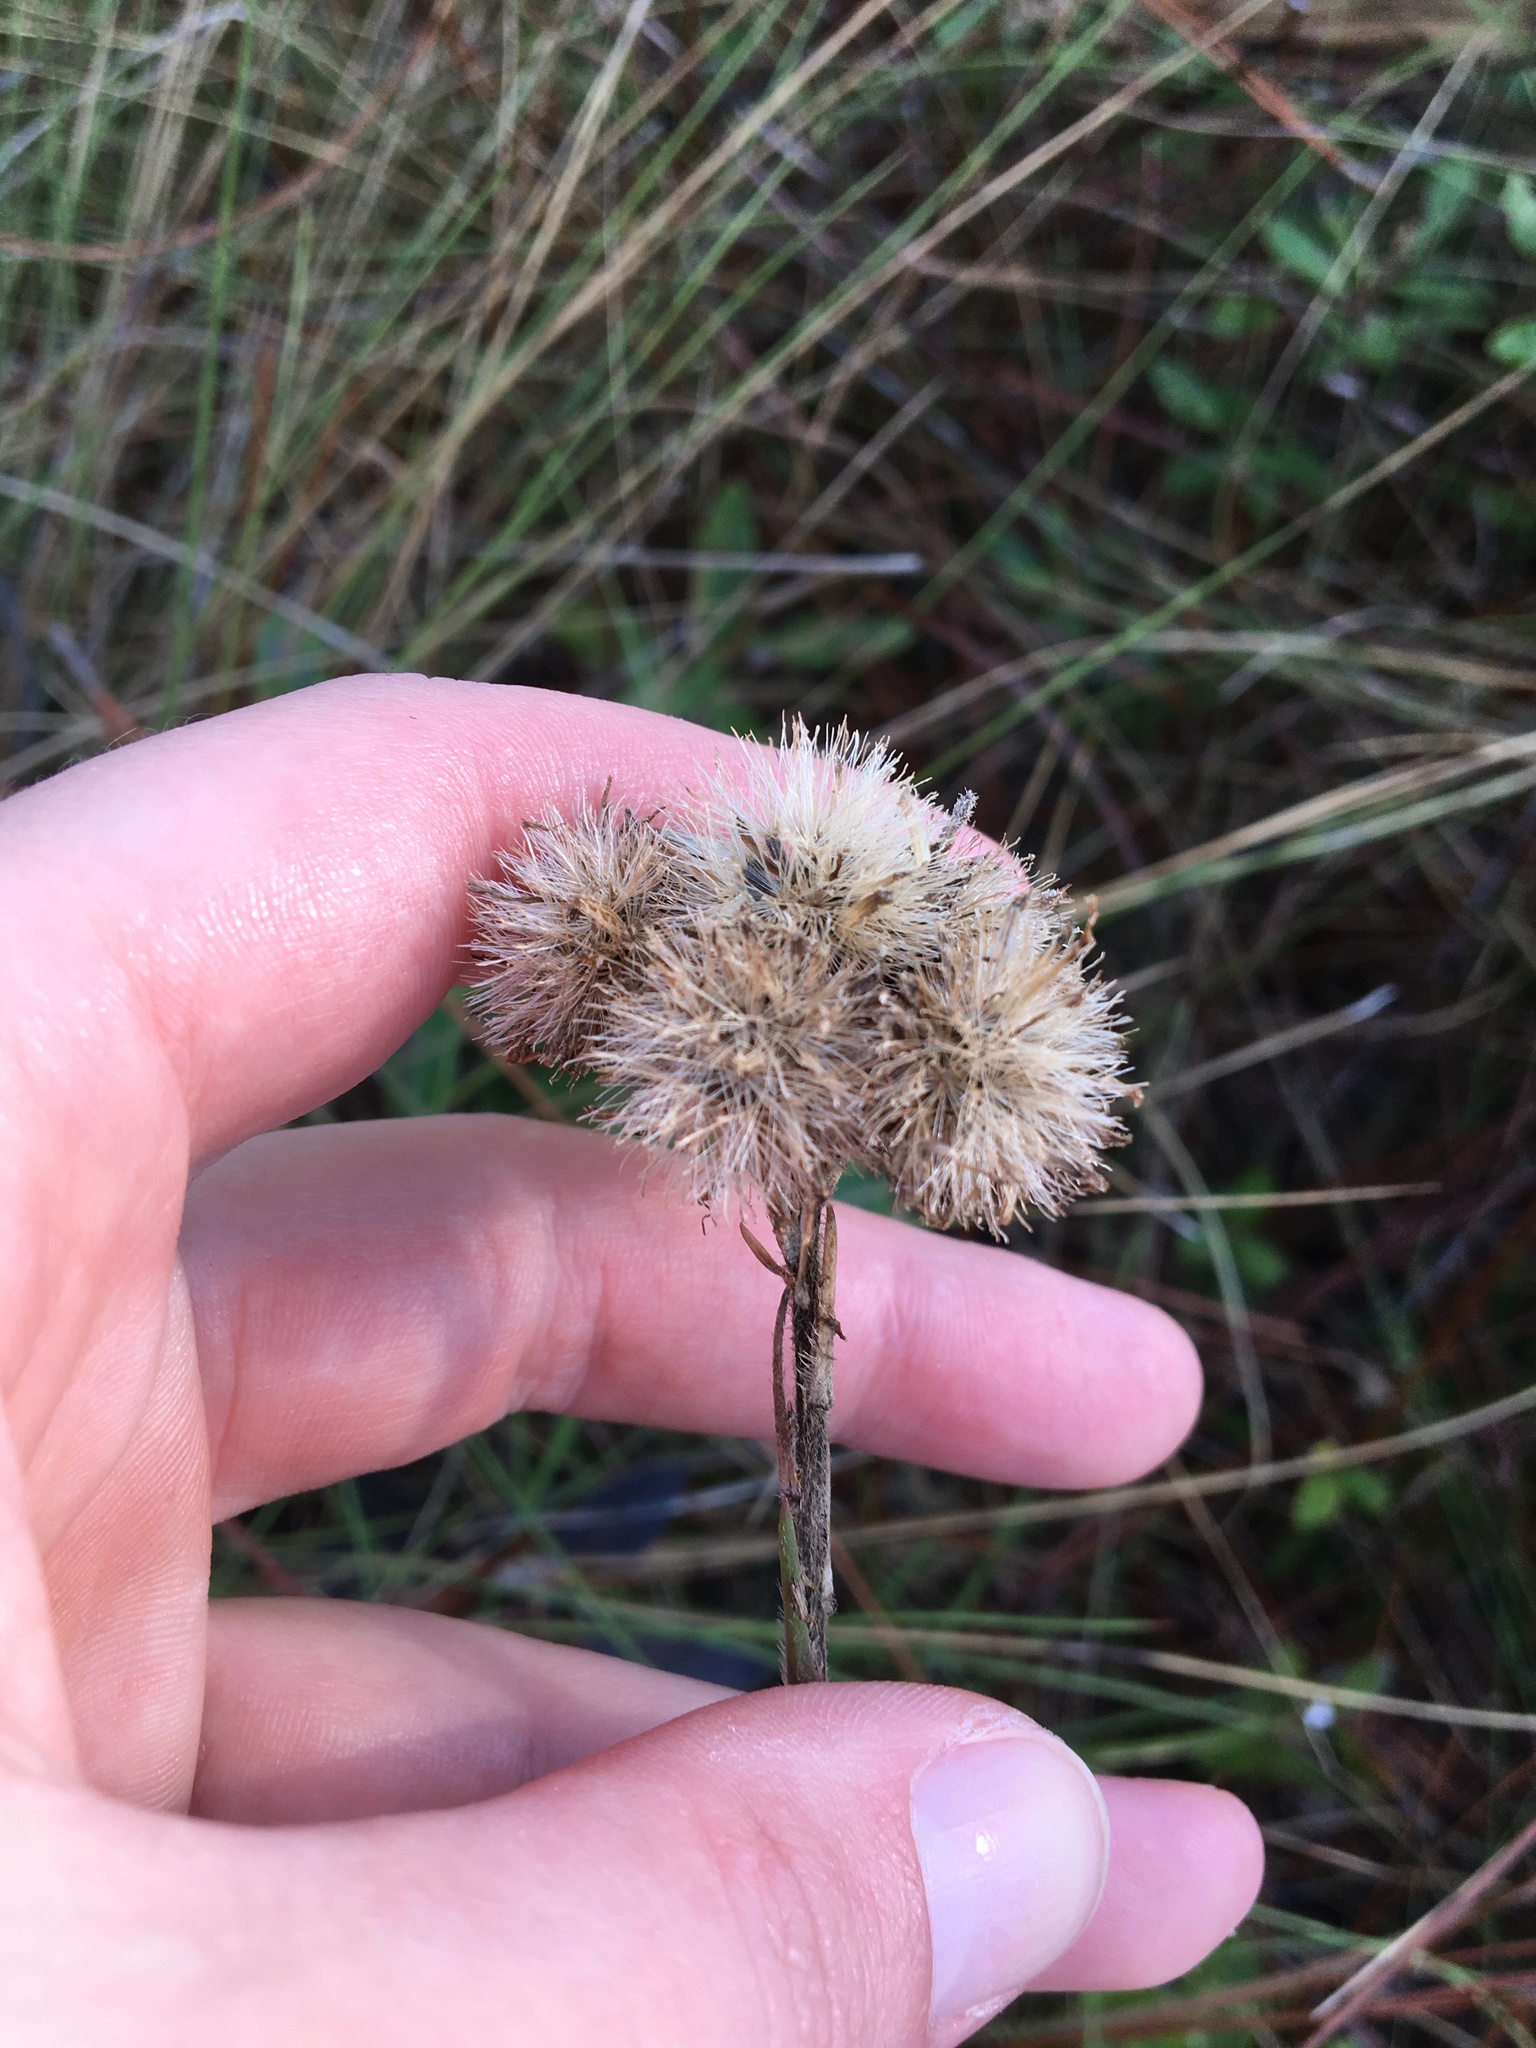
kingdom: Plantae
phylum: Tracheophyta
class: Magnoliopsida
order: Asterales
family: Asteraceae
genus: Carphephorus
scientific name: Carphephorus pseudoliatris
